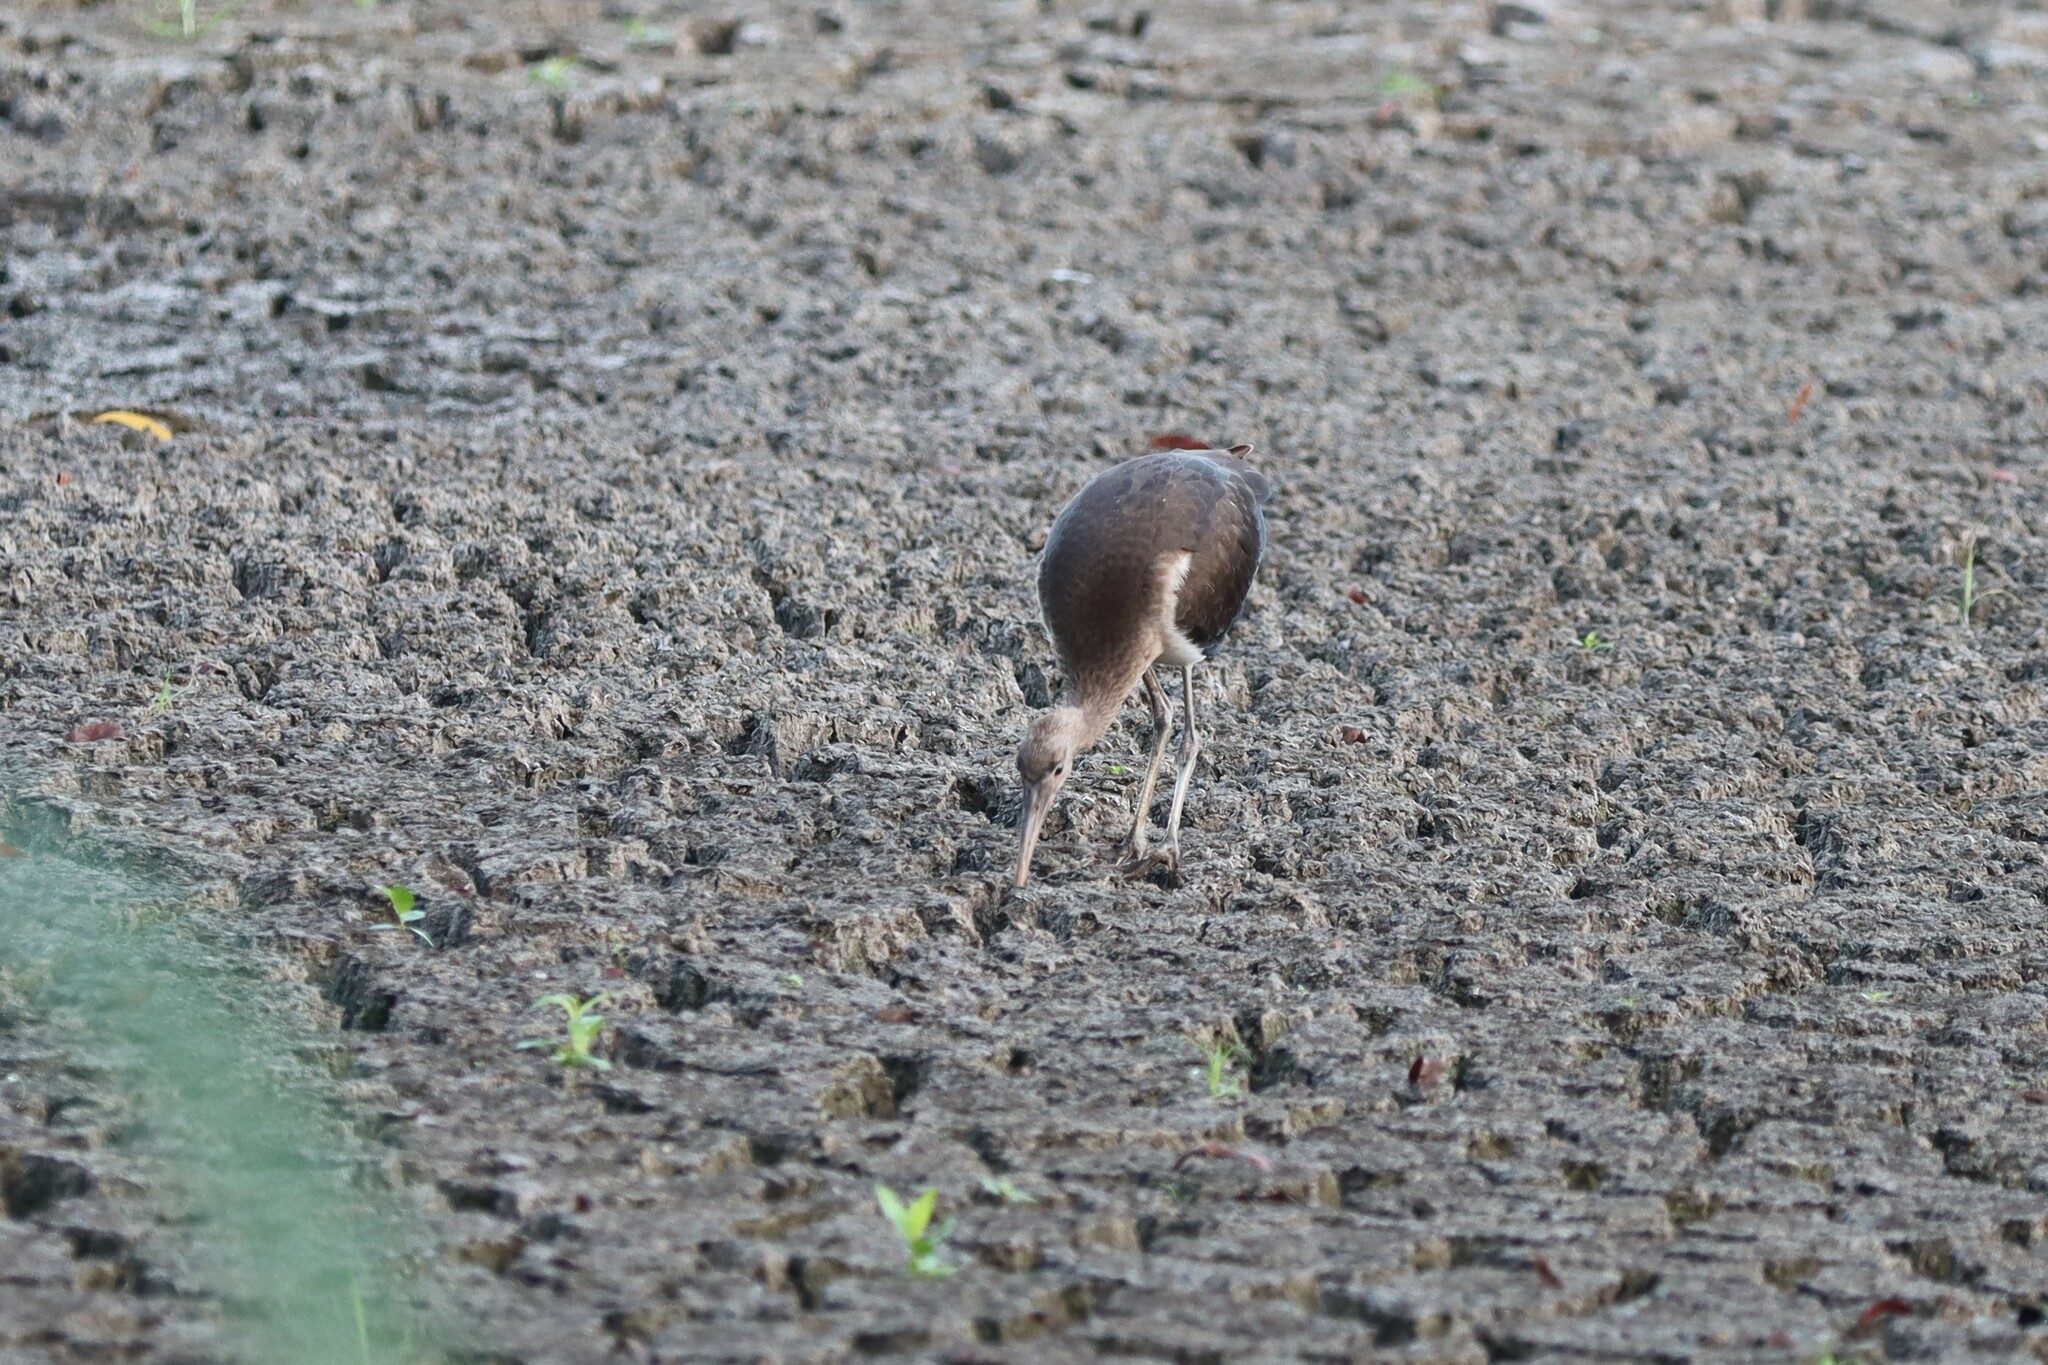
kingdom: Animalia
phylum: Chordata
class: Aves
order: Pelecaniformes
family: Threskiornithidae
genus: Eudocimus
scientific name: Eudocimus albus
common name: White ibis
